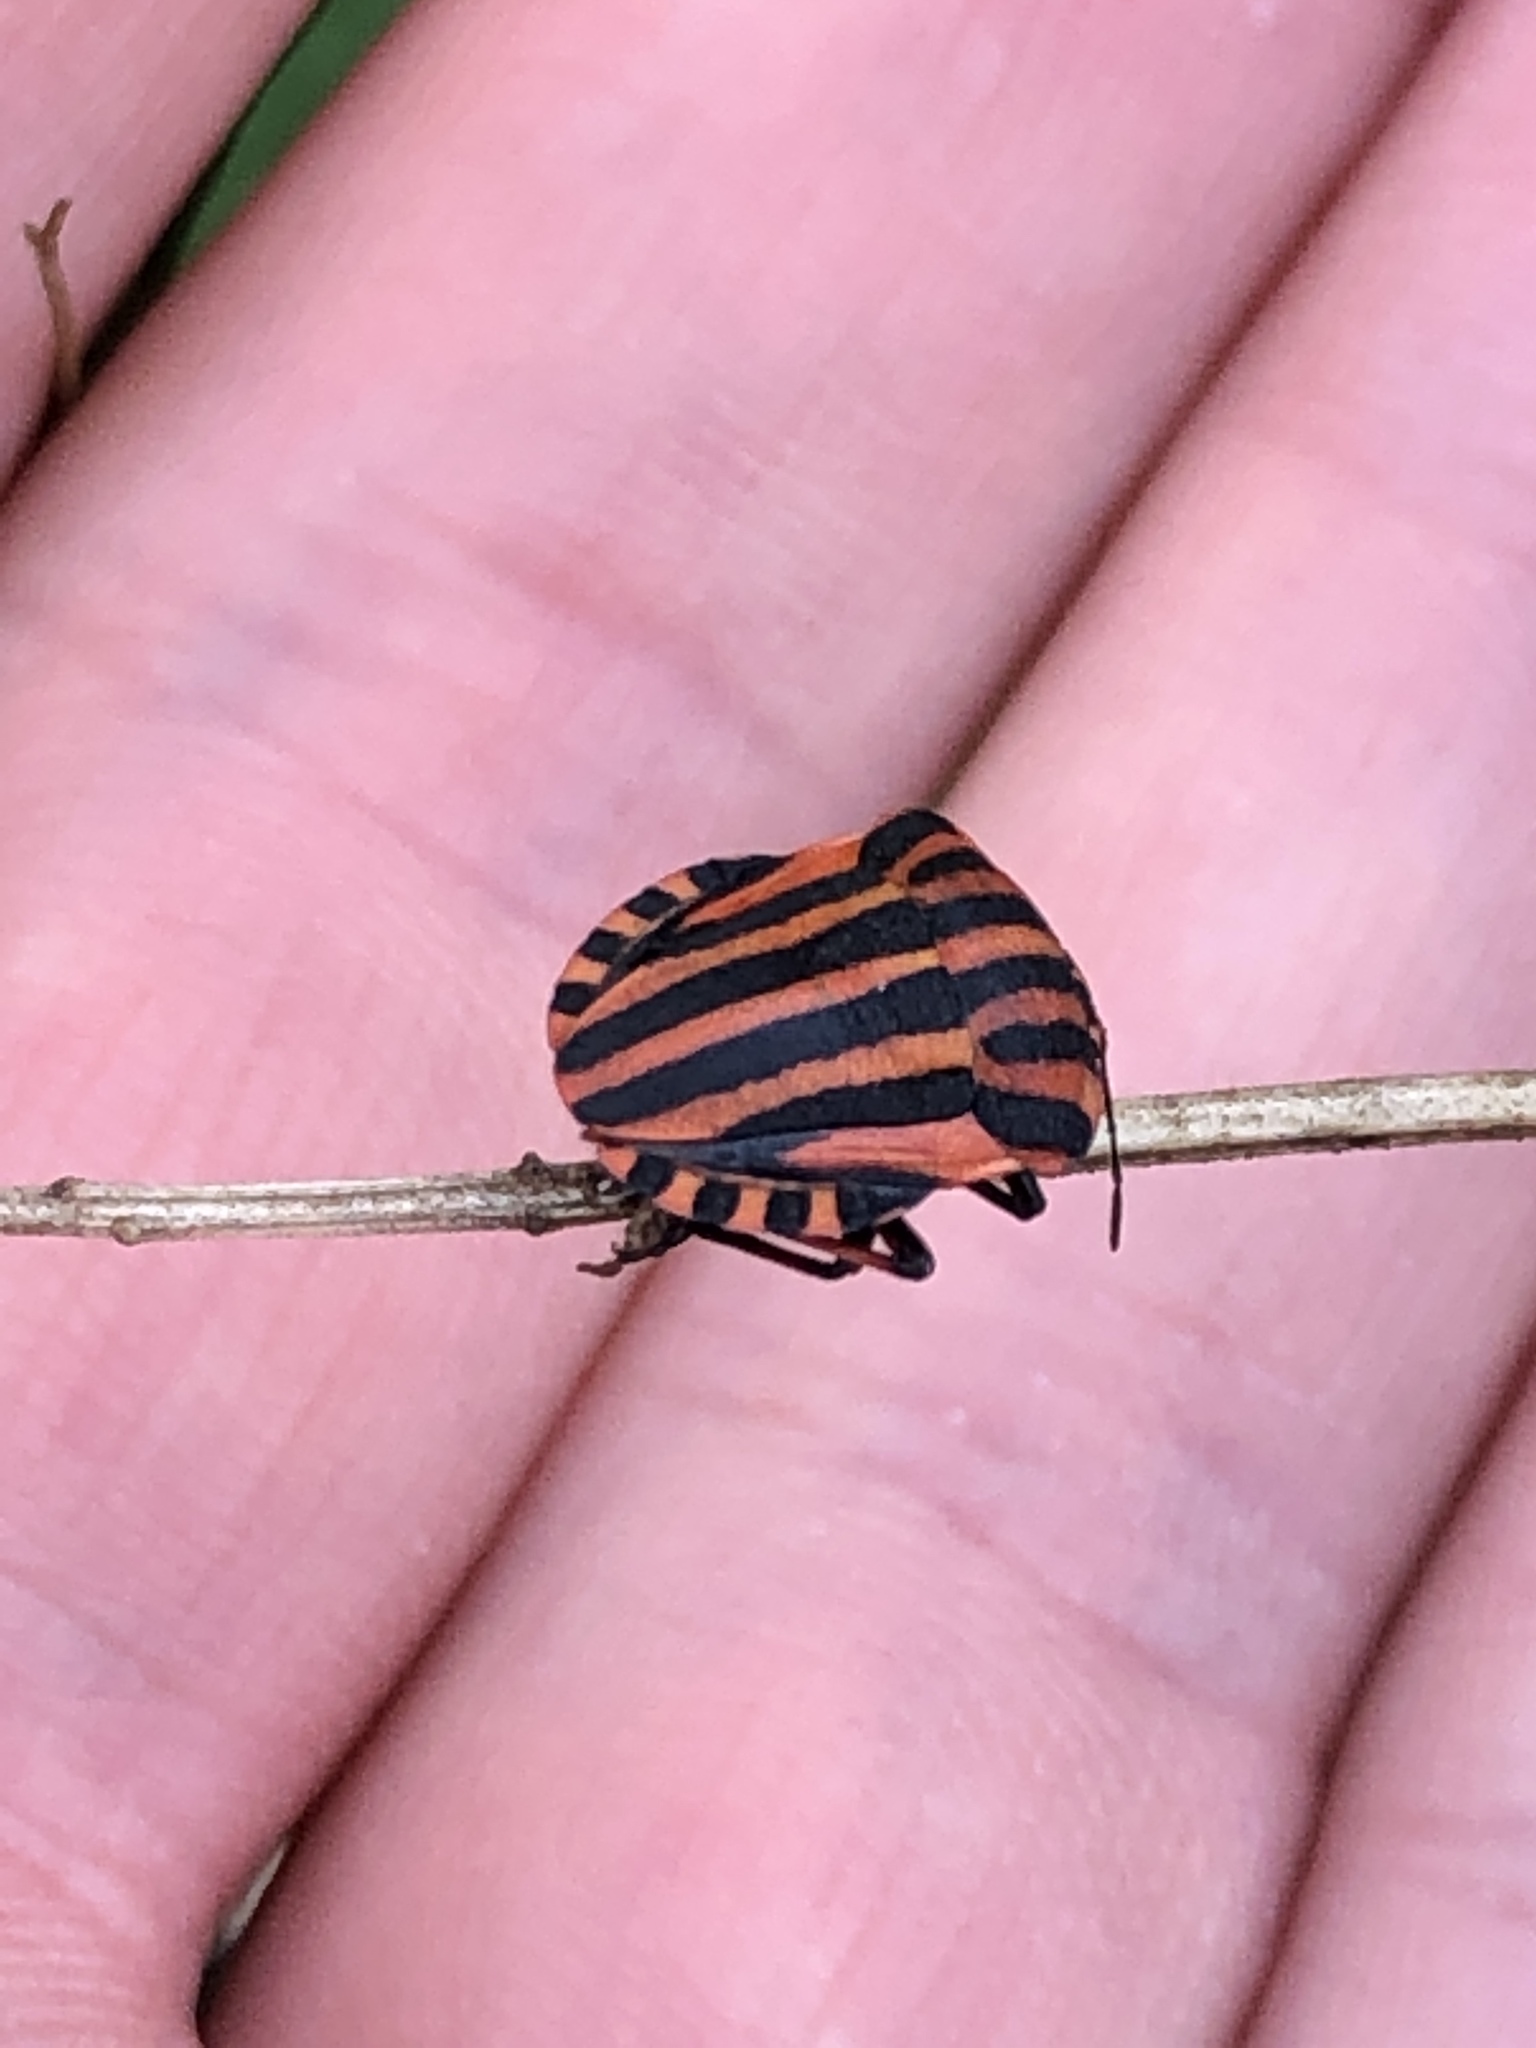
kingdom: Animalia
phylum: Arthropoda
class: Insecta
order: Hemiptera
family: Pentatomidae
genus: Graphosoma
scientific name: Graphosoma italicum
